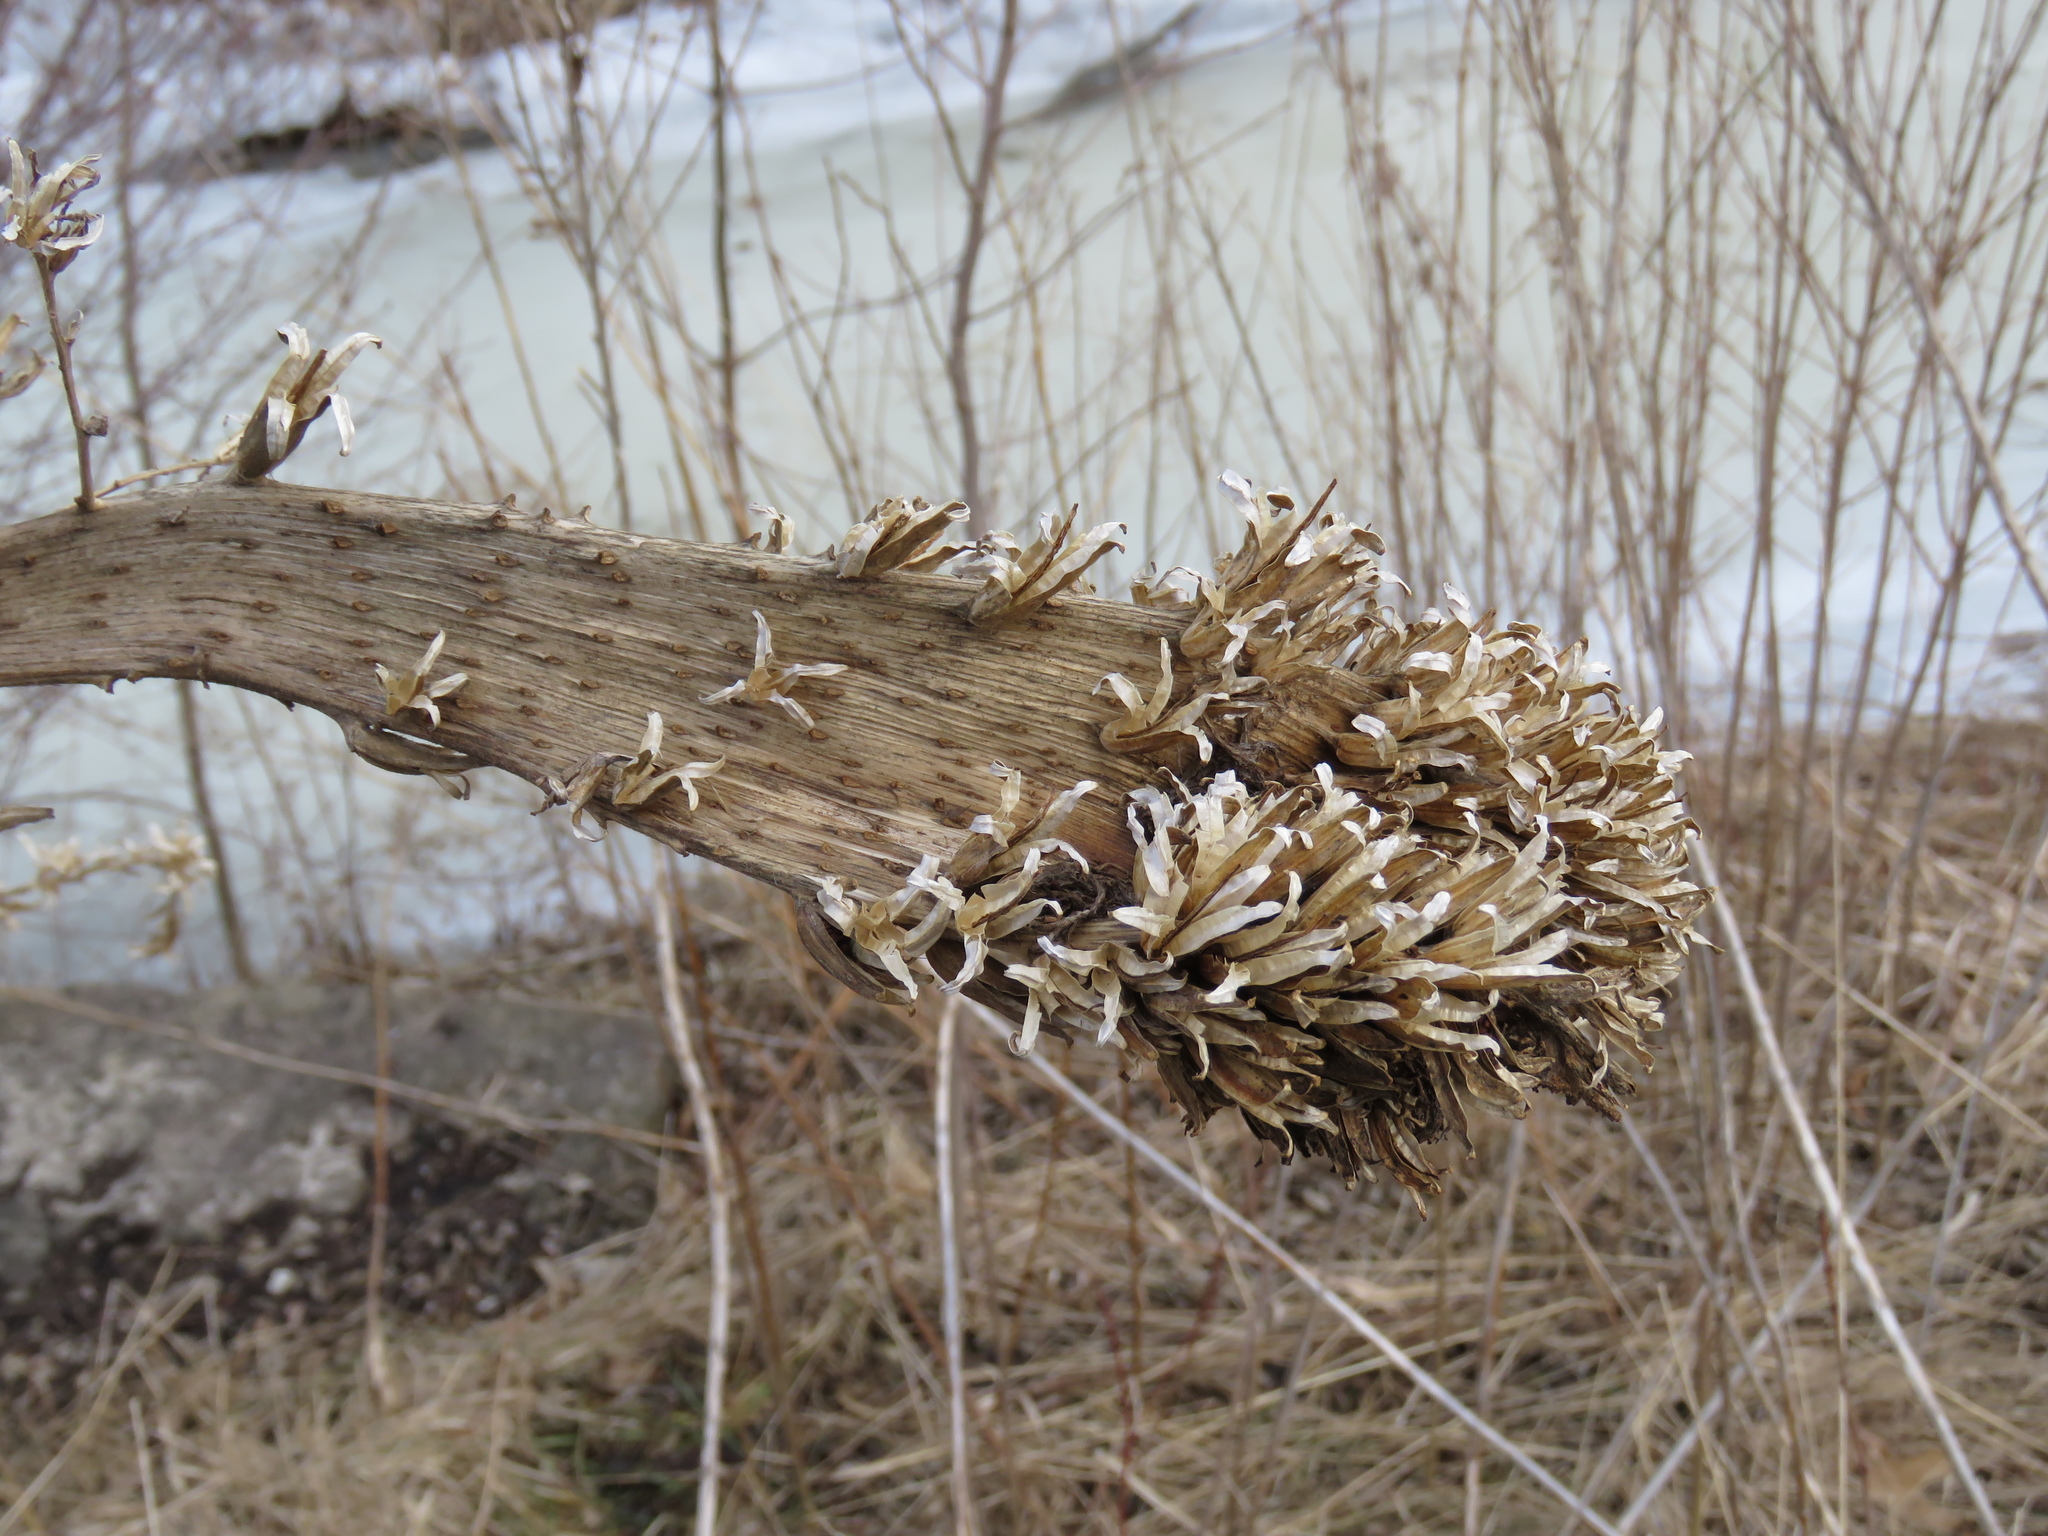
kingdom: Plantae
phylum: Tracheophyta
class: Magnoliopsida
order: Myrtales
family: Onagraceae
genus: Oenothera
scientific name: Oenothera biennis
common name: Common evening-primrose
